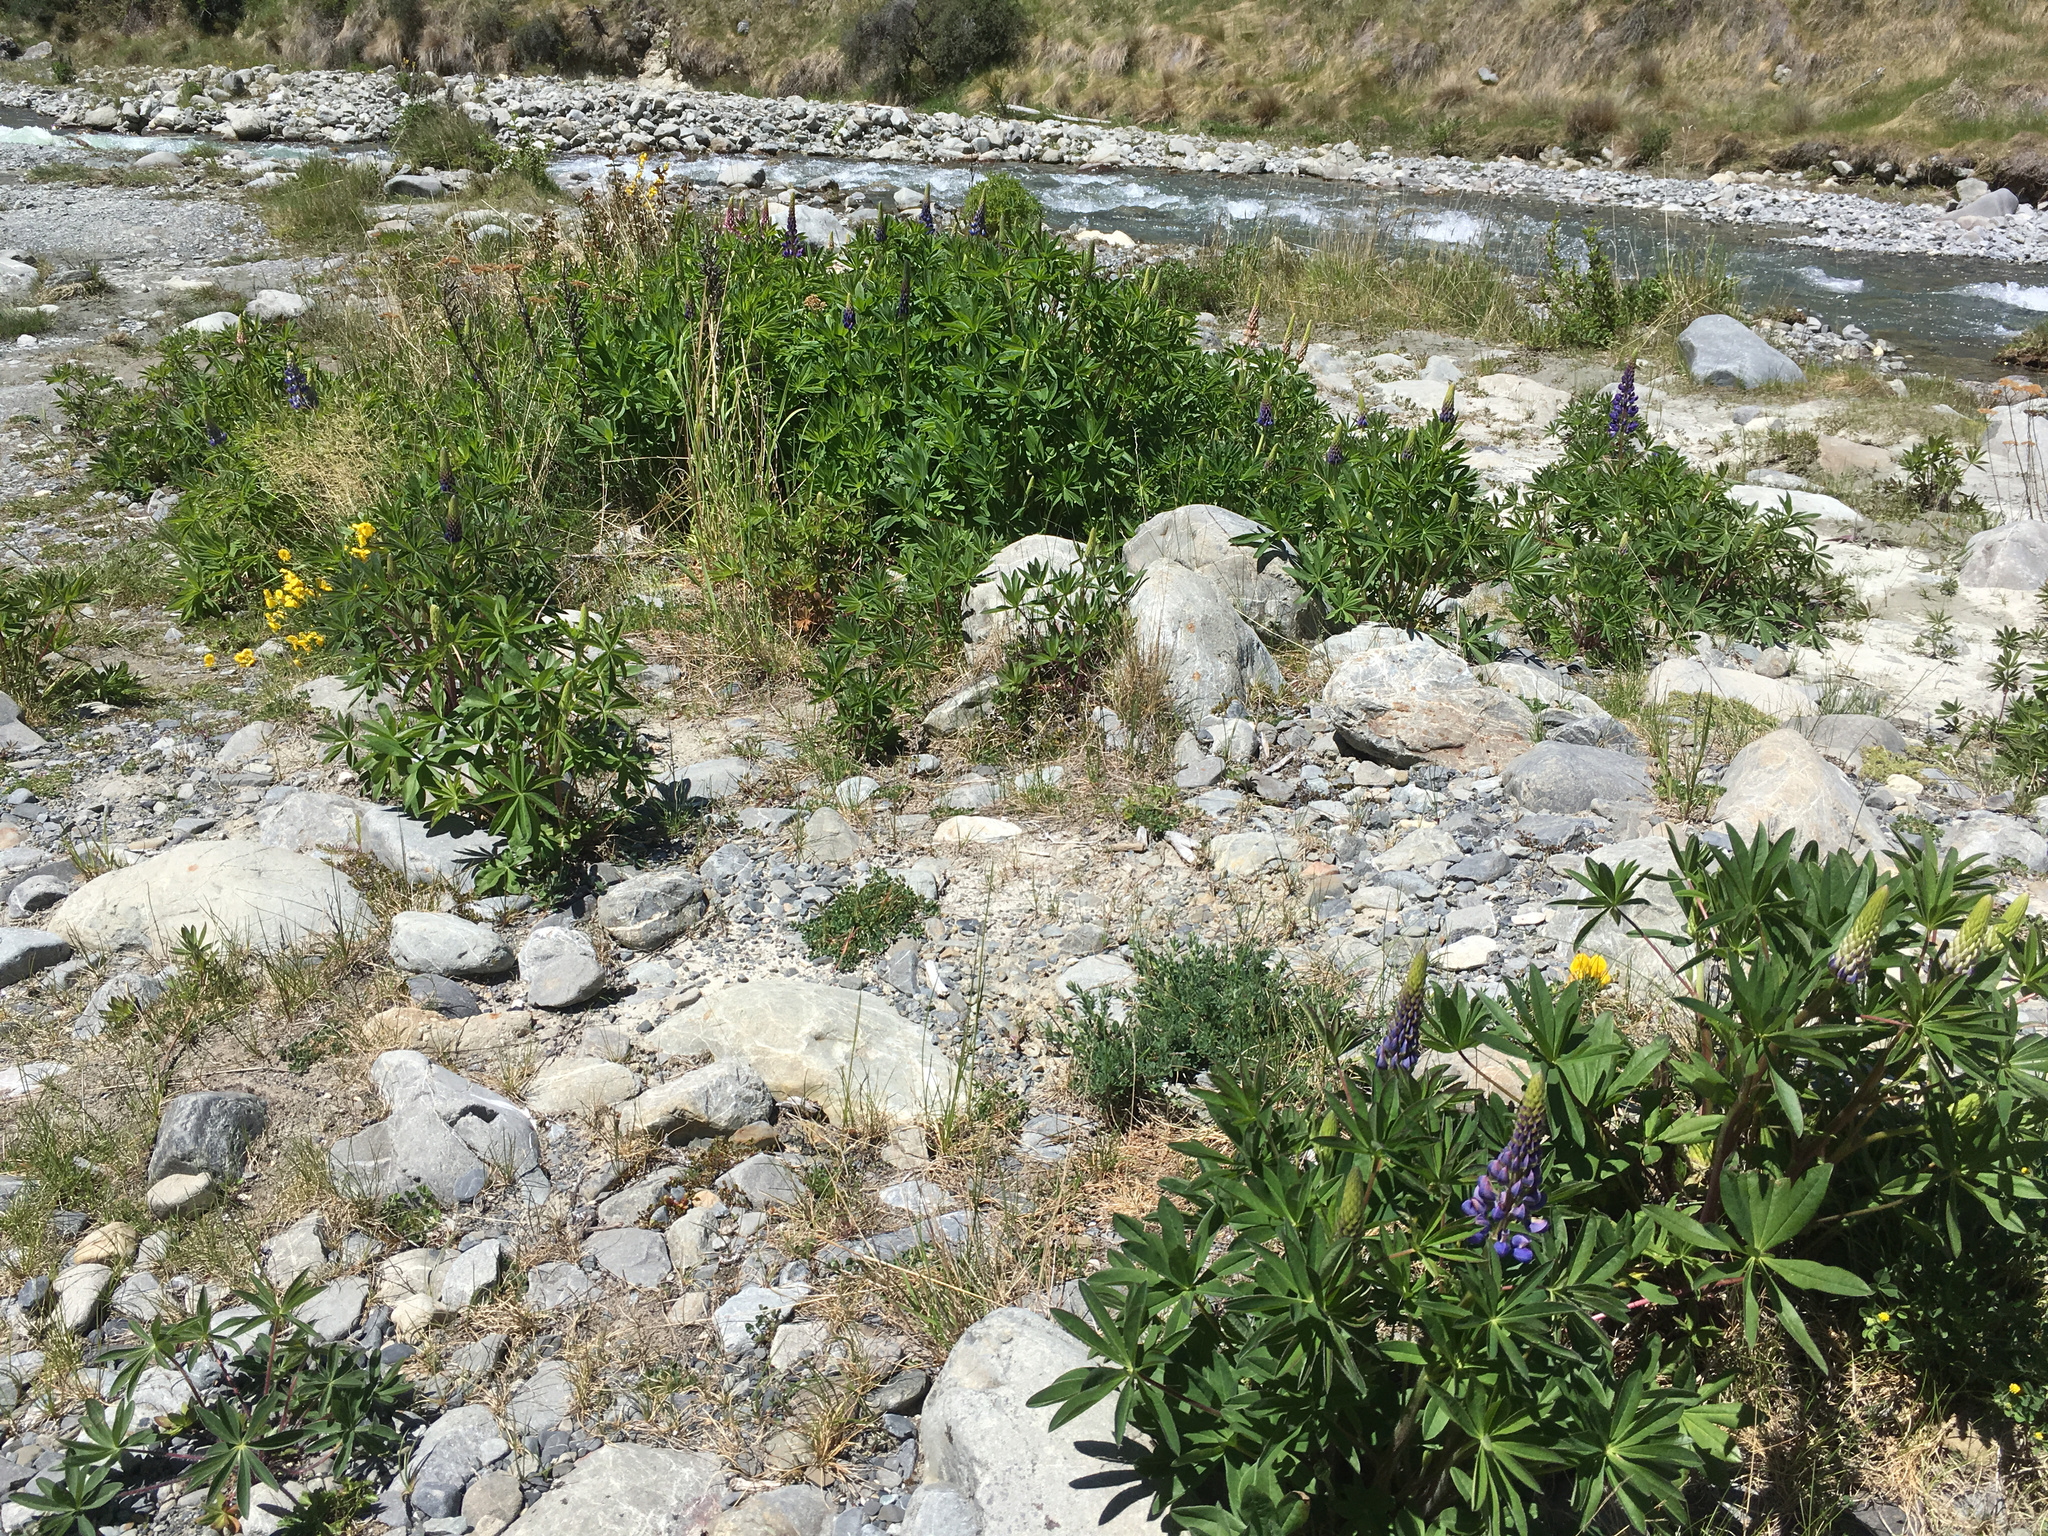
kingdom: Plantae
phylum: Tracheophyta
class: Magnoliopsida
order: Fabales
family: Fabaceae
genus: Lupinus
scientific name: Lupinus polyphyllus
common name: Garden lupin
